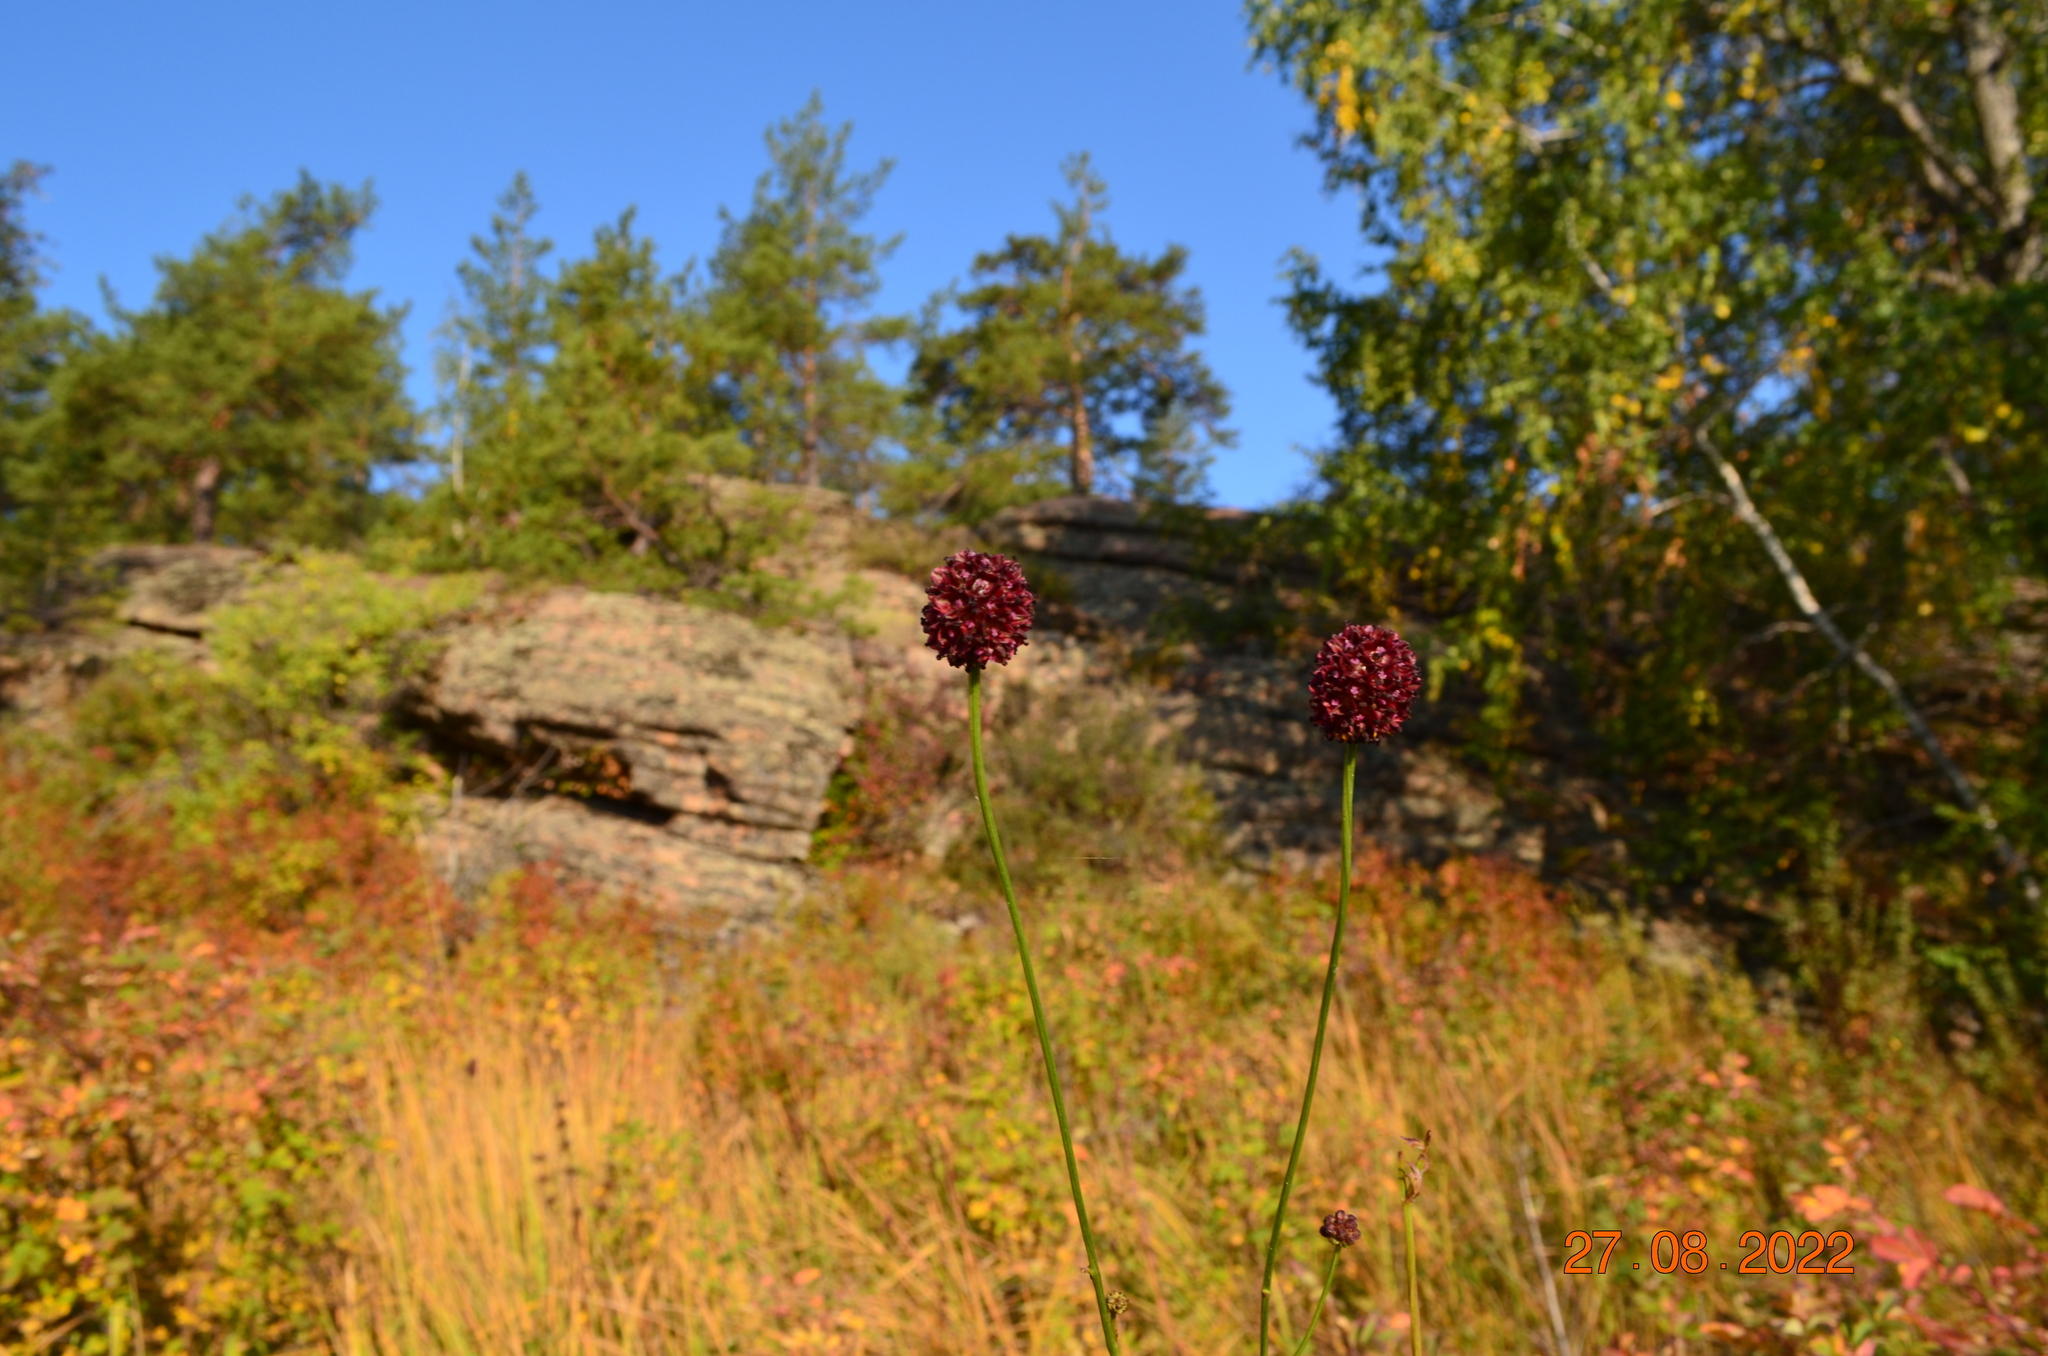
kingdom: Plantae
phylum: Tracheophyta
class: Magnoliopsida
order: Rosales
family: Rosaceae
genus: Sanguisorba
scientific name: Sanguisorba officinalis
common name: Great burnet
